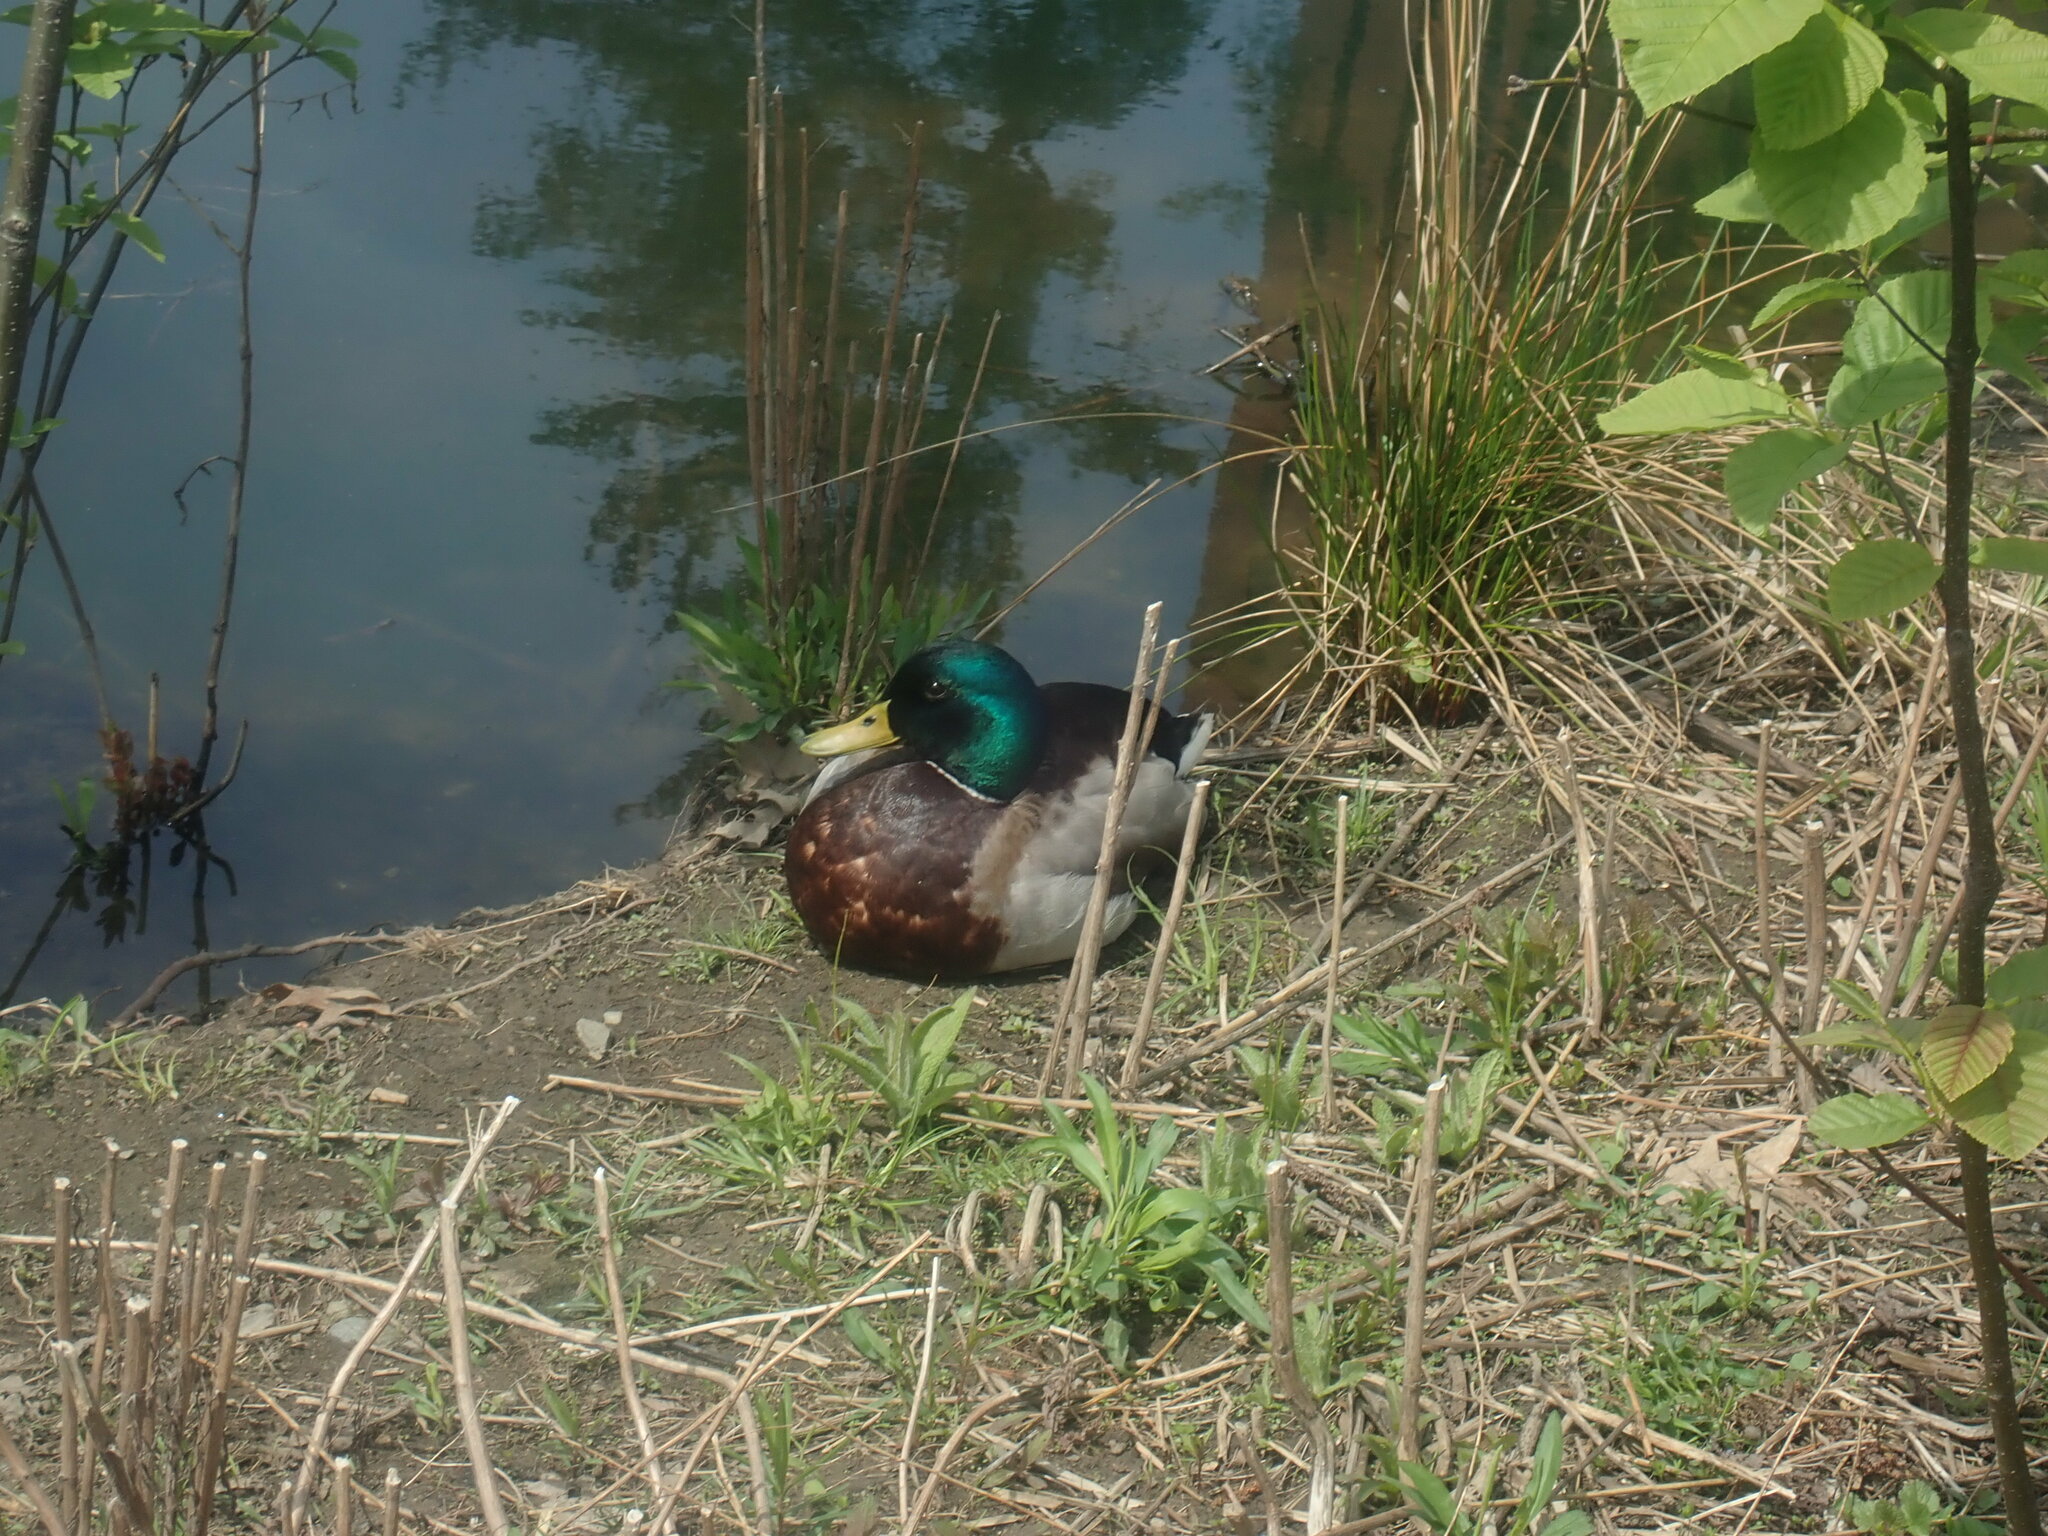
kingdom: Animalia
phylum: Chordata
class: Aves
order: Anseriformes
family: Anatidae
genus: Anas
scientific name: Anas platyrhynchos
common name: Mallard
